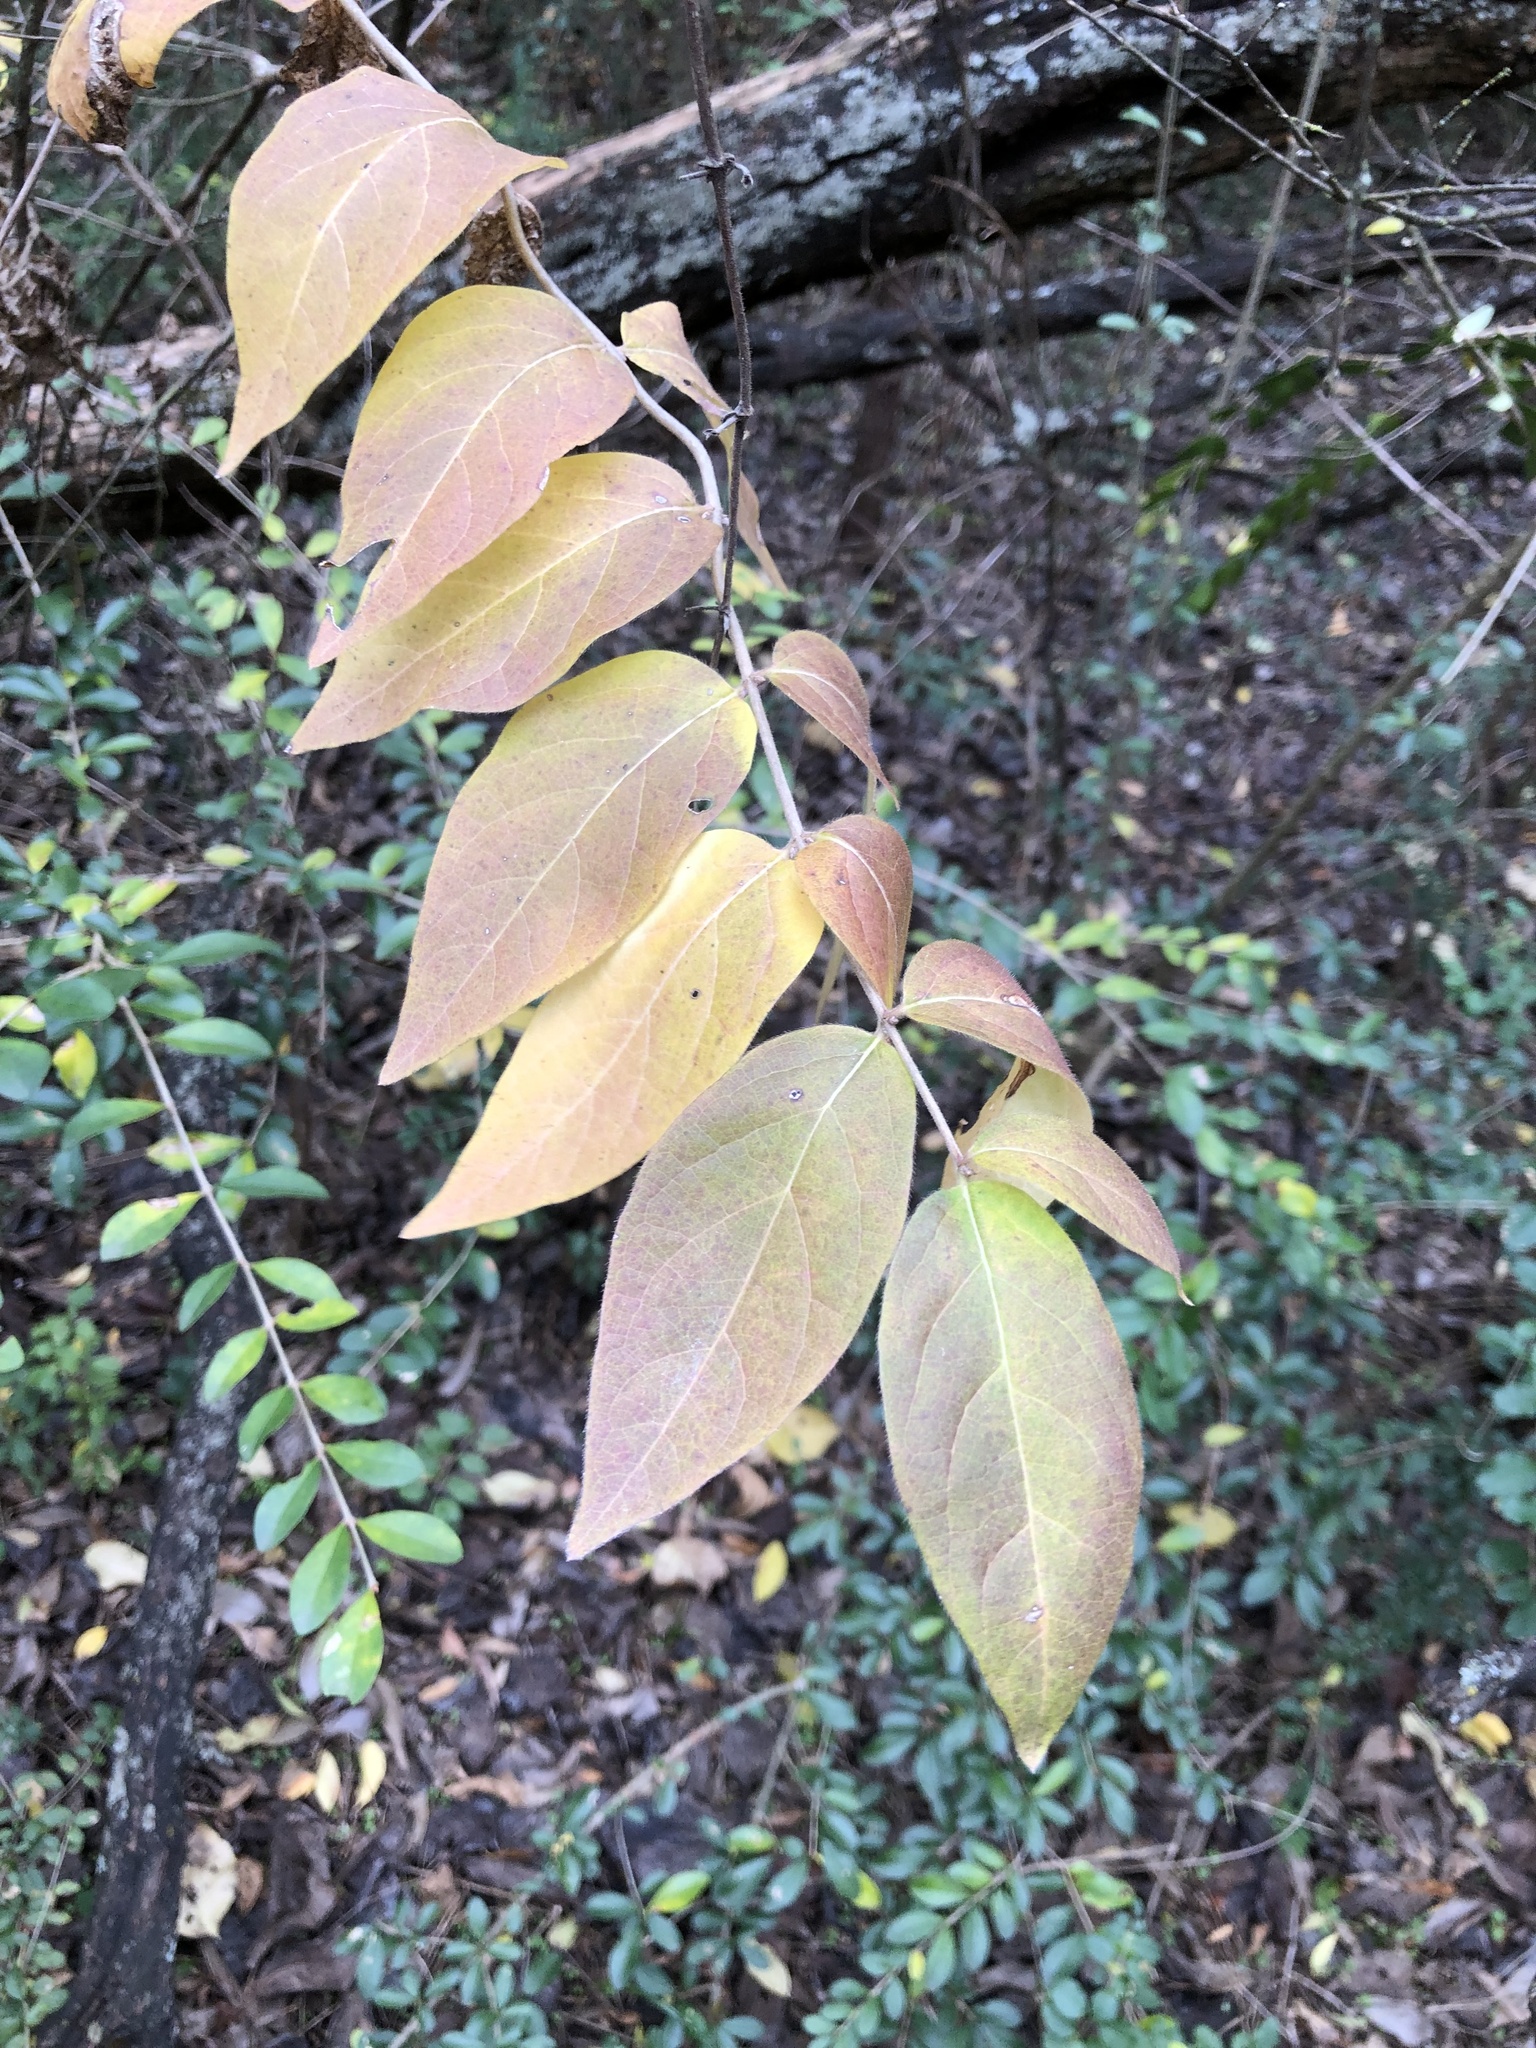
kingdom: Plantae
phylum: Tracheophyta
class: Magnoliopsida
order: Dipsacales
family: Caprifoliaceae
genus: Lonicera
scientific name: Lonicera maackii
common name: Amur honeysuckle
